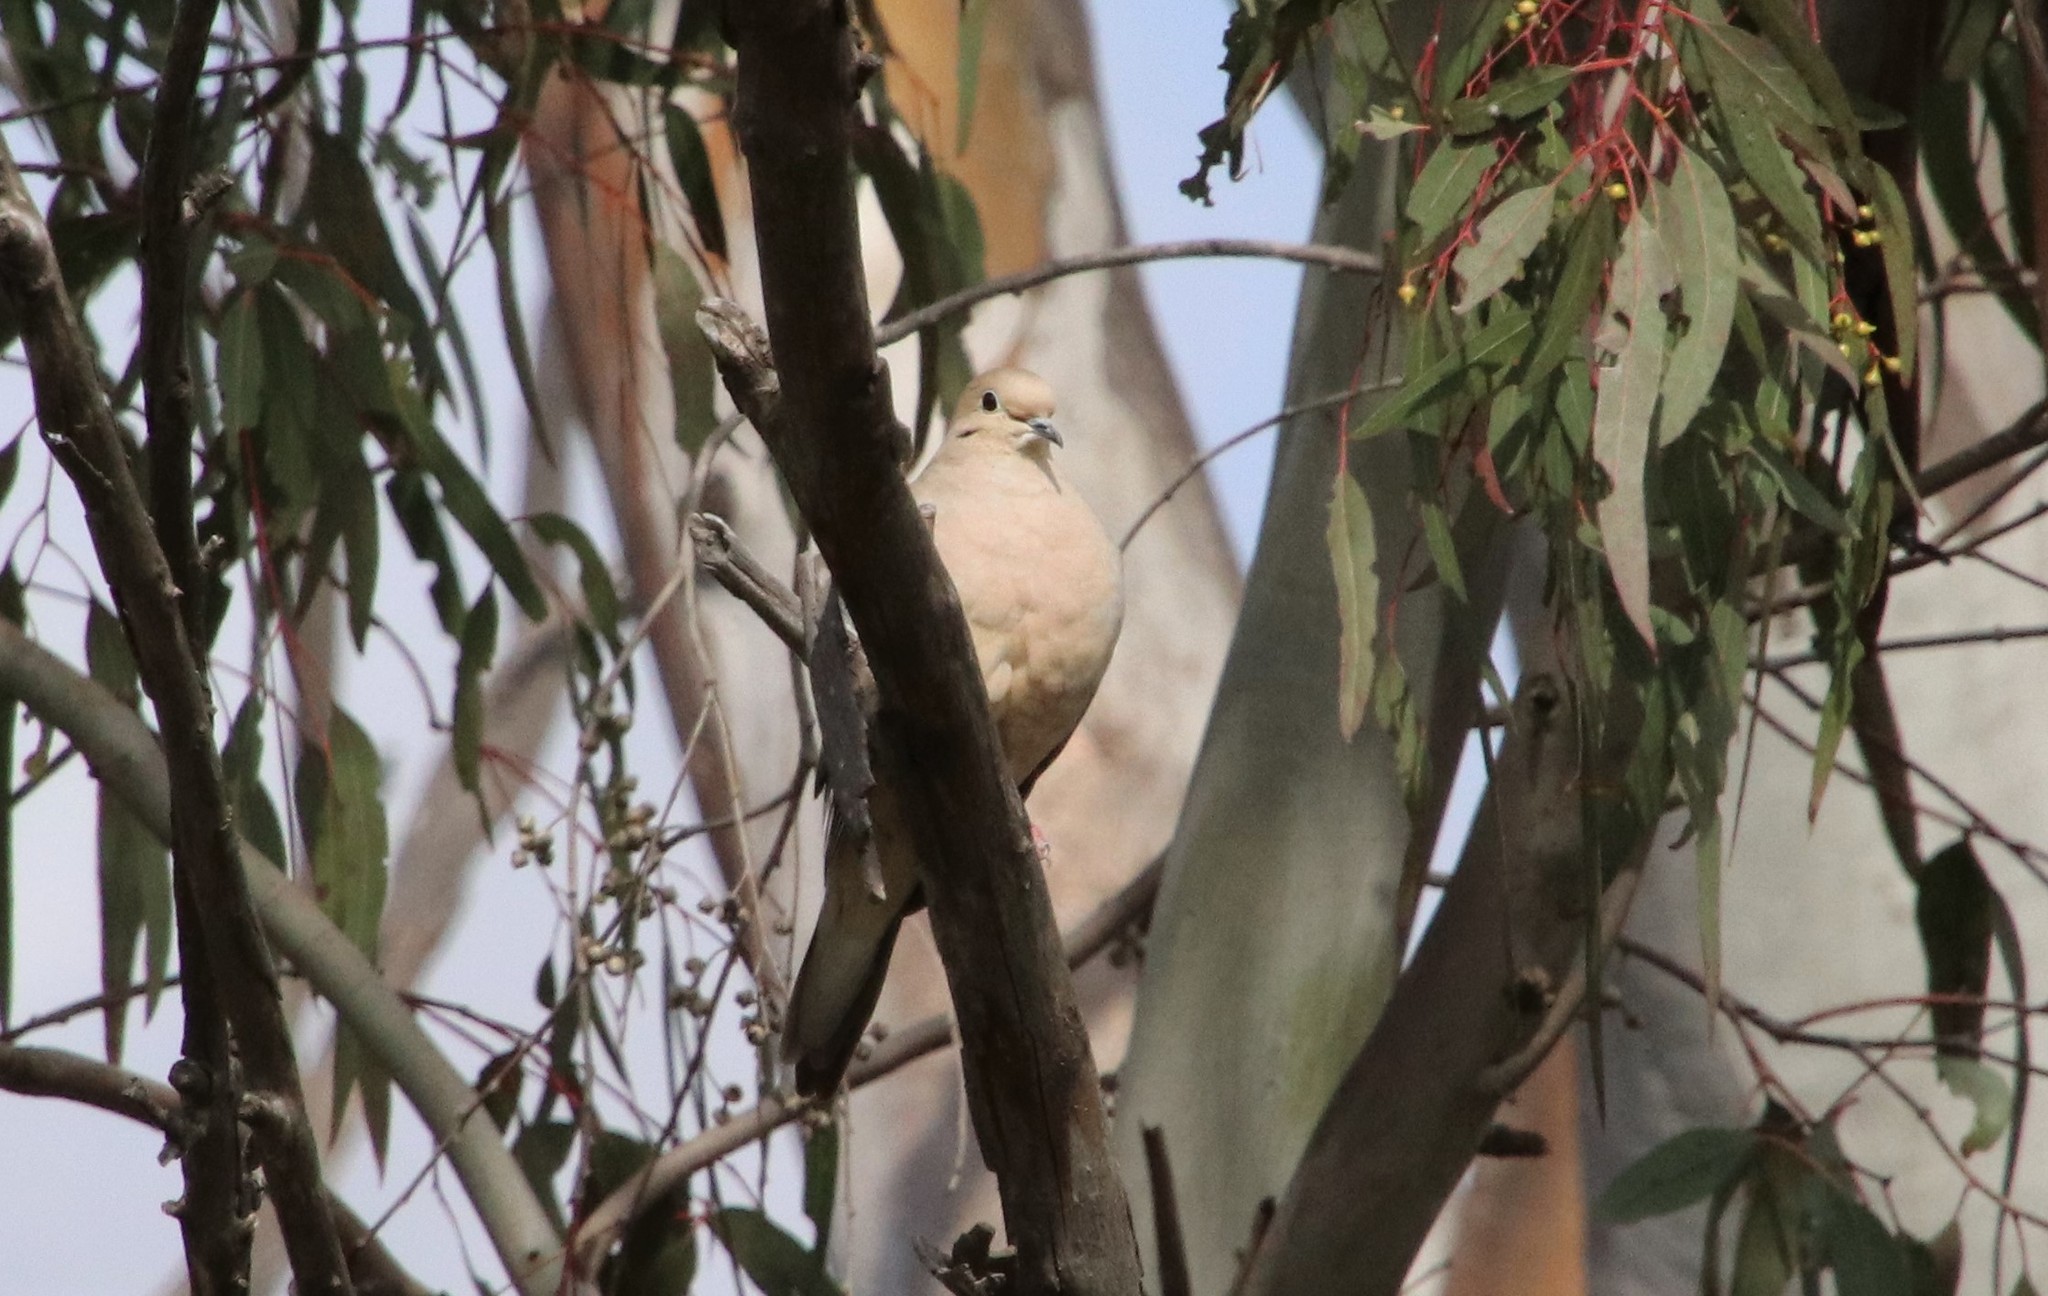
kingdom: Animalia
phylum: Chordata
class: Aves
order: Columbiformes
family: Columbidae
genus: Zenaida
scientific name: Zenaida macroura
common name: Mourning dove
